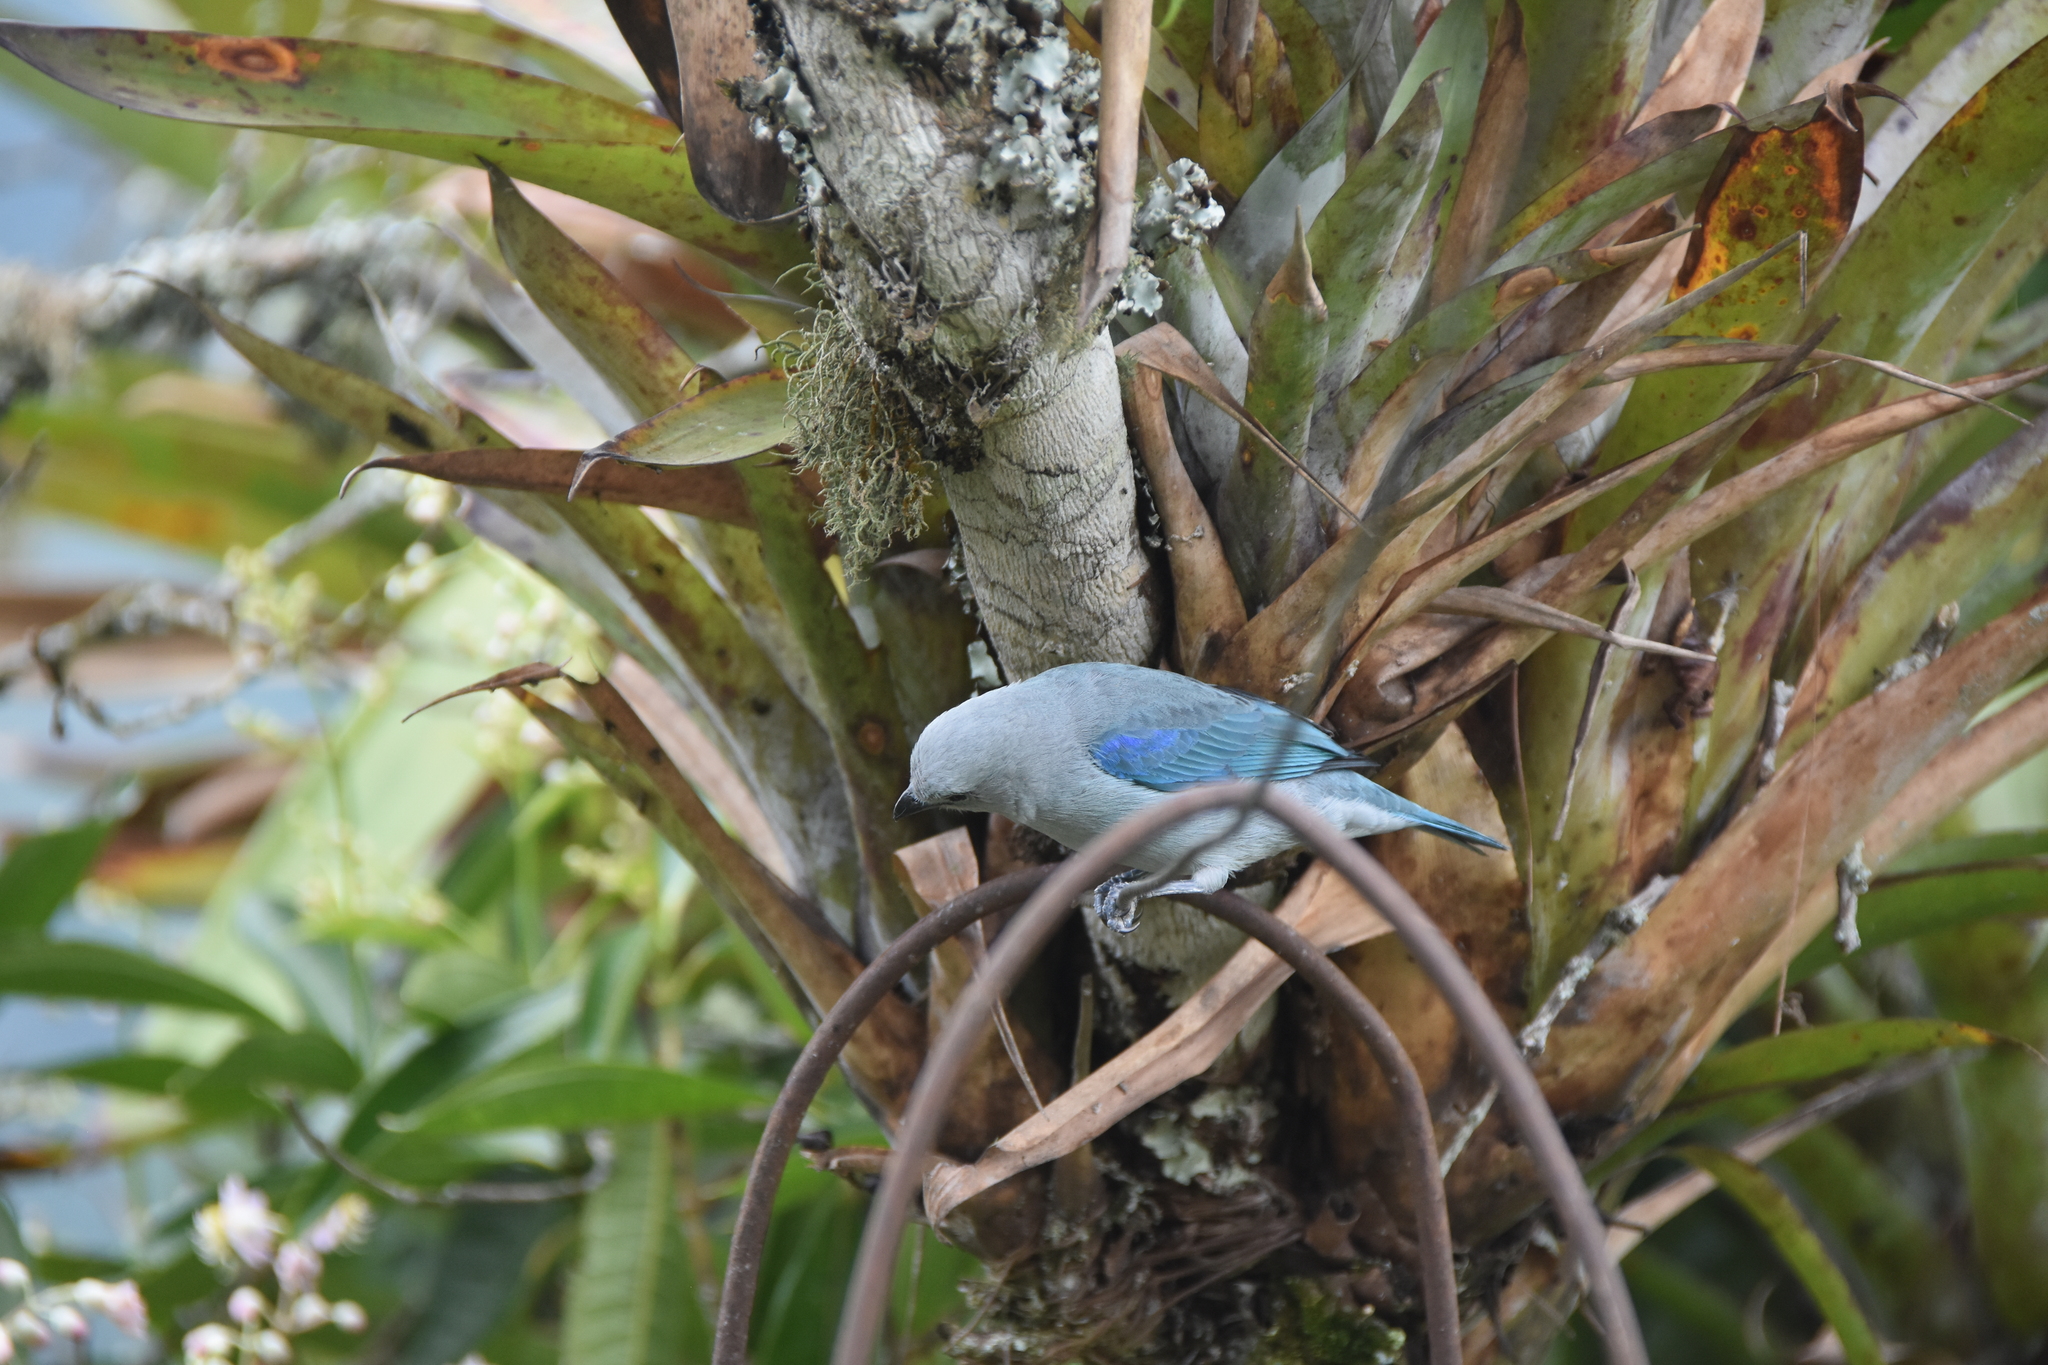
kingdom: Animalia
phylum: Chordata
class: Aves
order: Passeriformes
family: Thraupidae
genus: Thraupis
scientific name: Thraupis episcopus
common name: Blue-grey tanager
